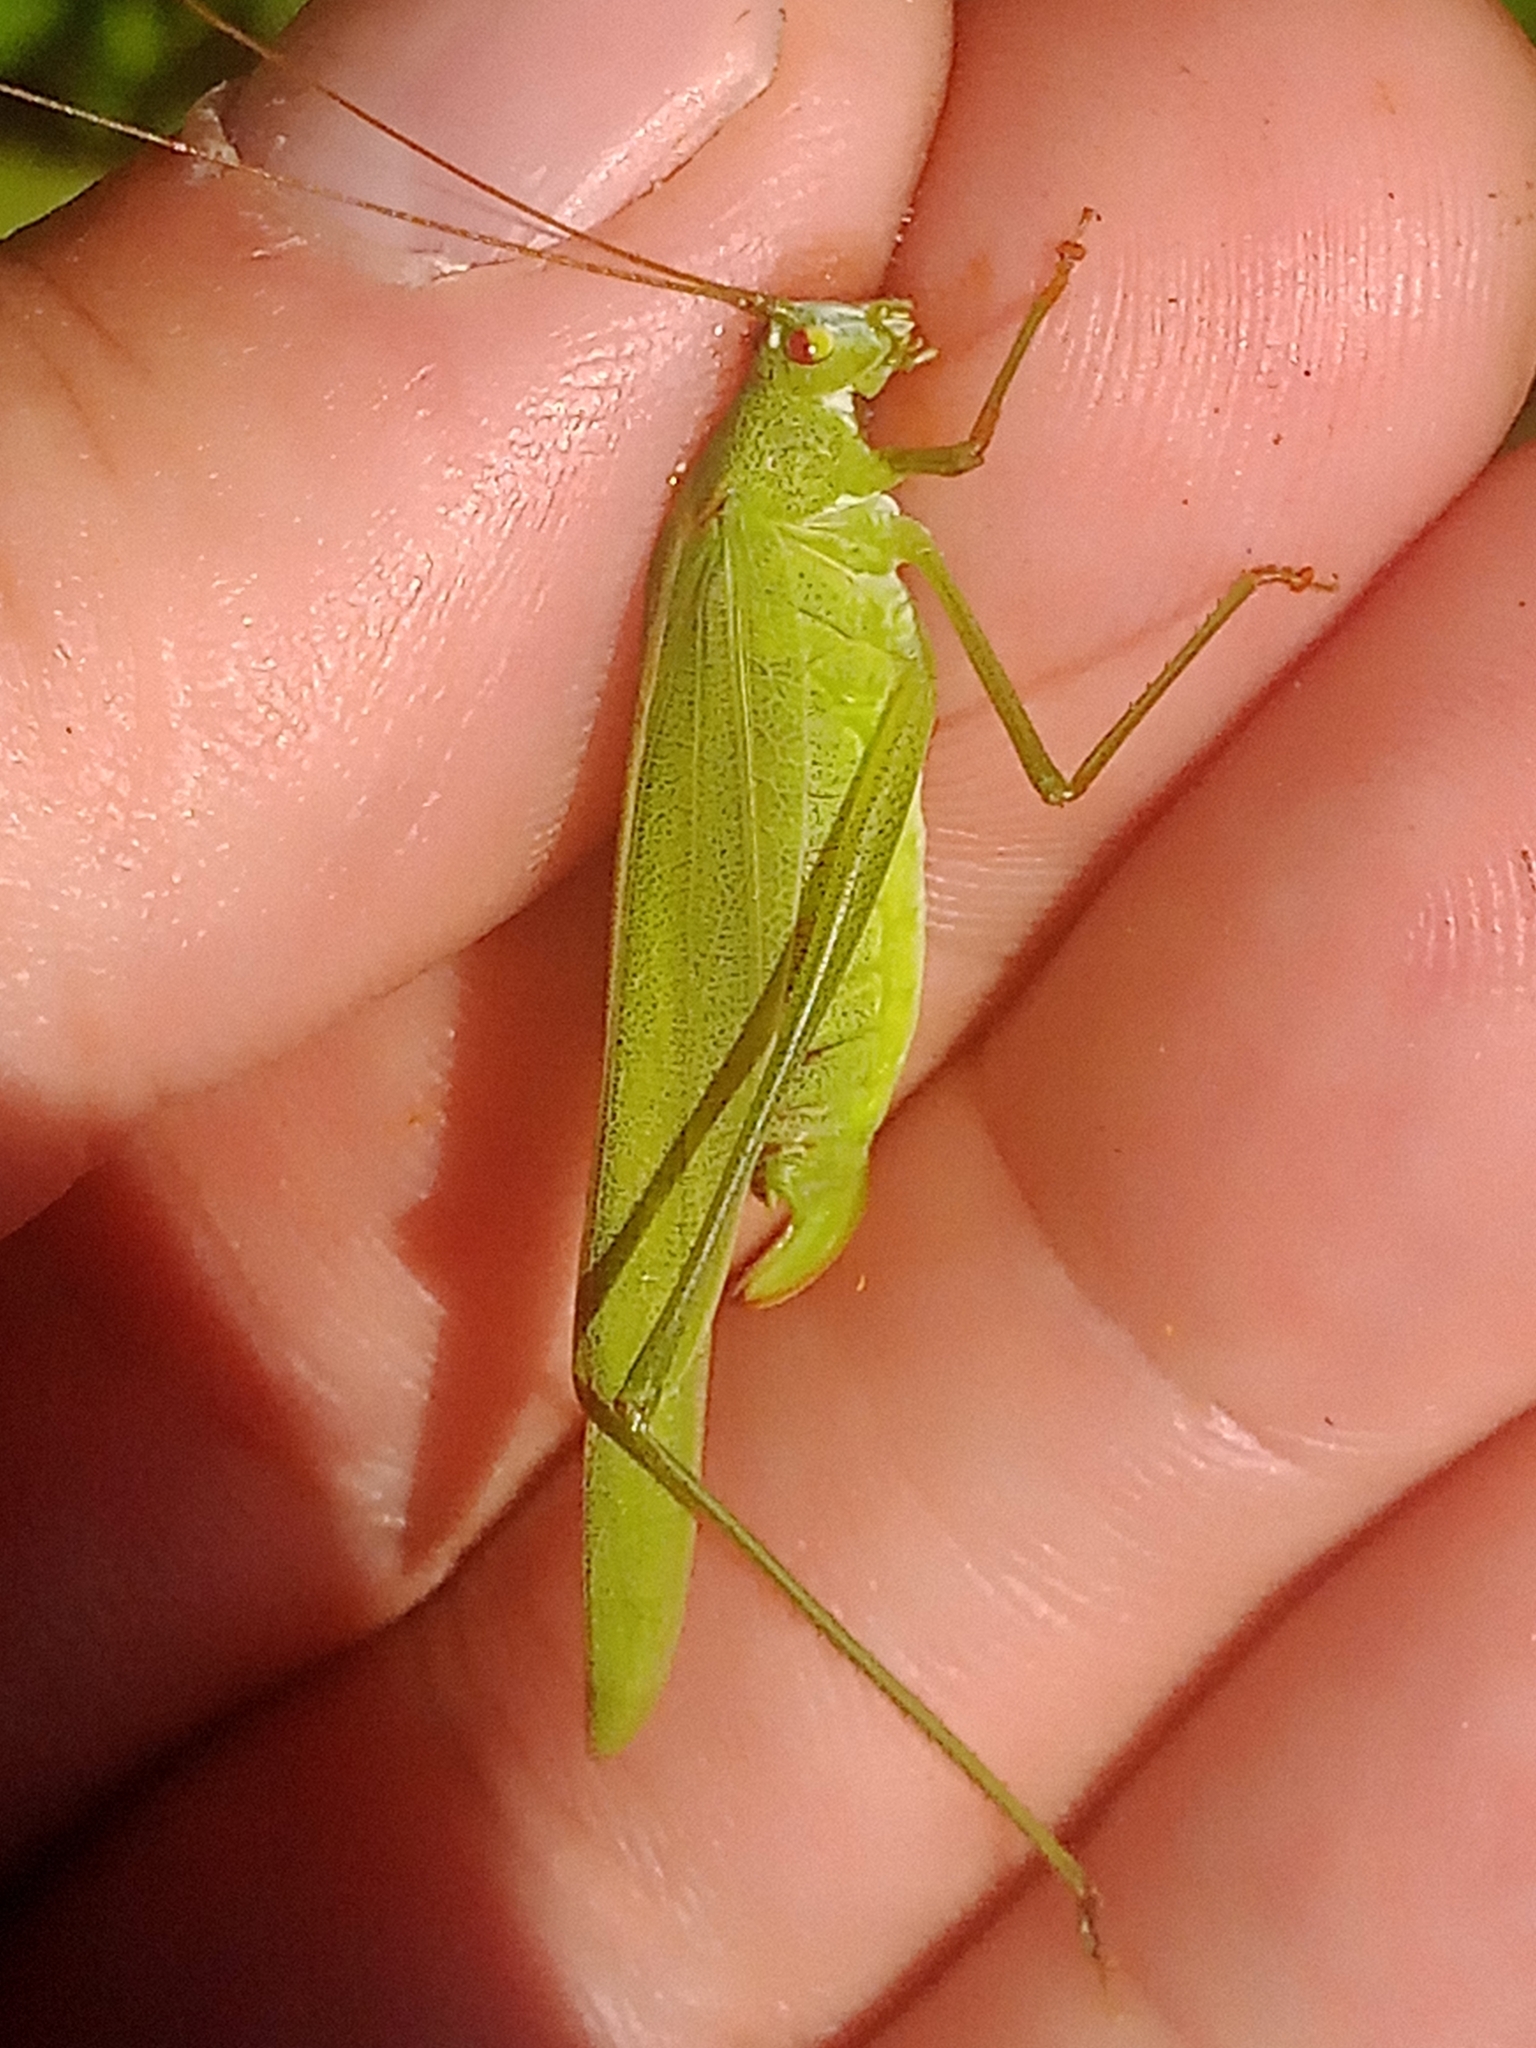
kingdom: Animalia
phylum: Arthropoda
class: Insecta
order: Orthoptera
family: Tettigoniidae
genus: Phaneroptera
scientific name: Phaneroptera falcata
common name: Sickle-bearing bush-cricket
